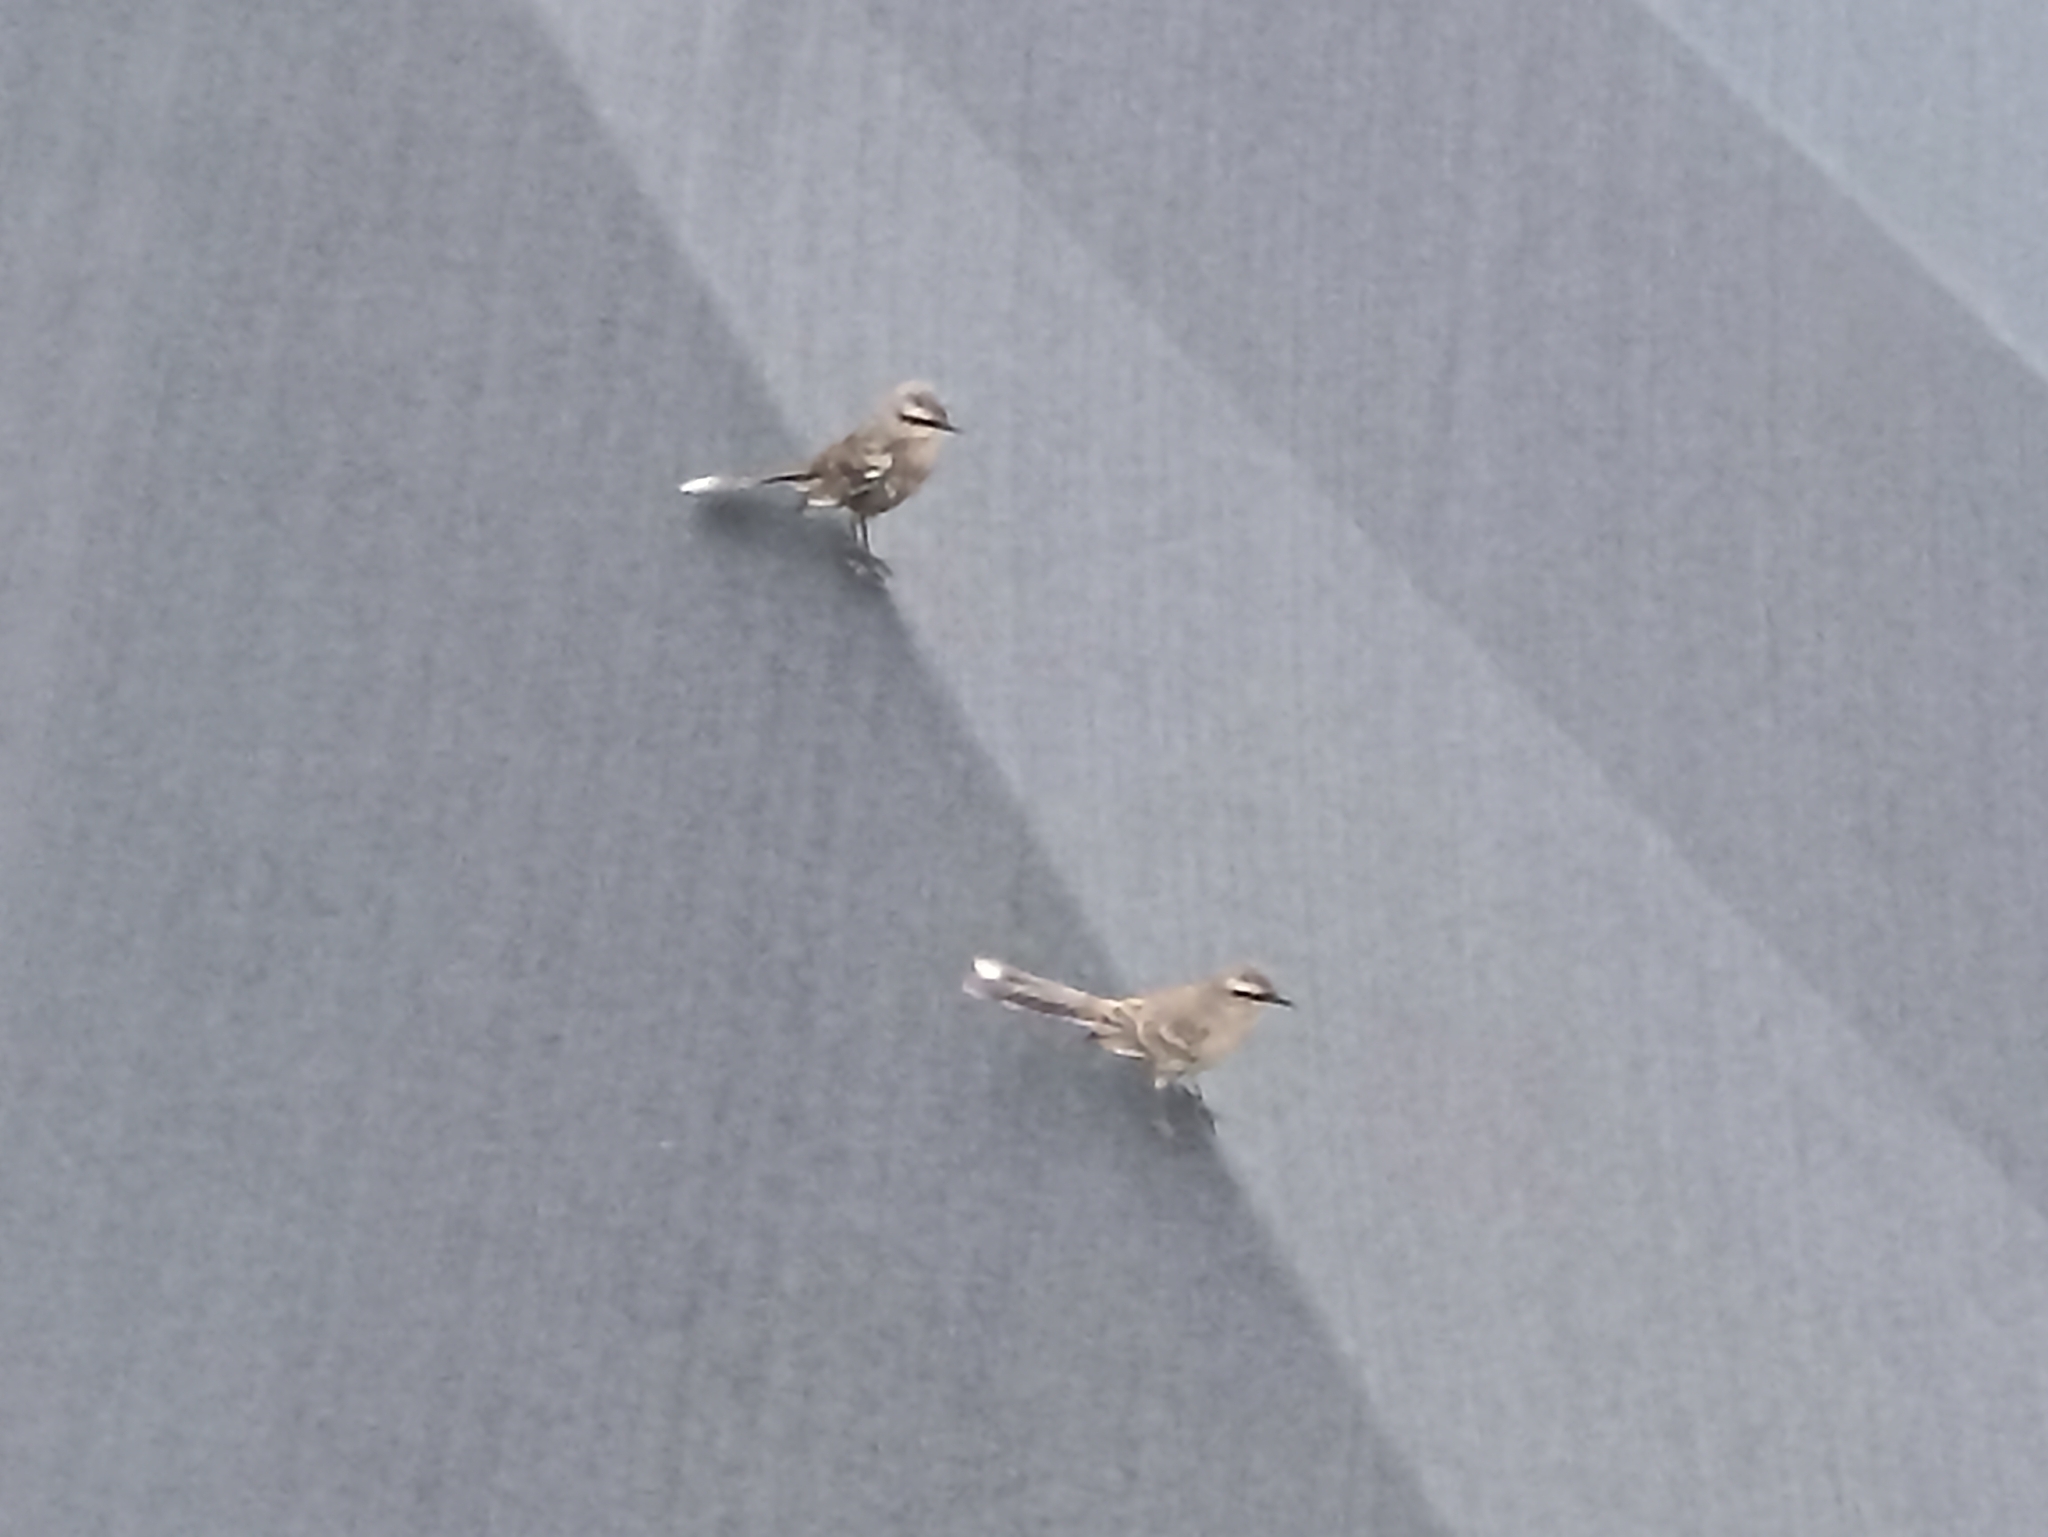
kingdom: Animalia
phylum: Chordata
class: Aves
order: Passeriformes
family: Mimidae
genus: Mimus
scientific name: Mimus saturninus
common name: Chalk-browed mockingbird
